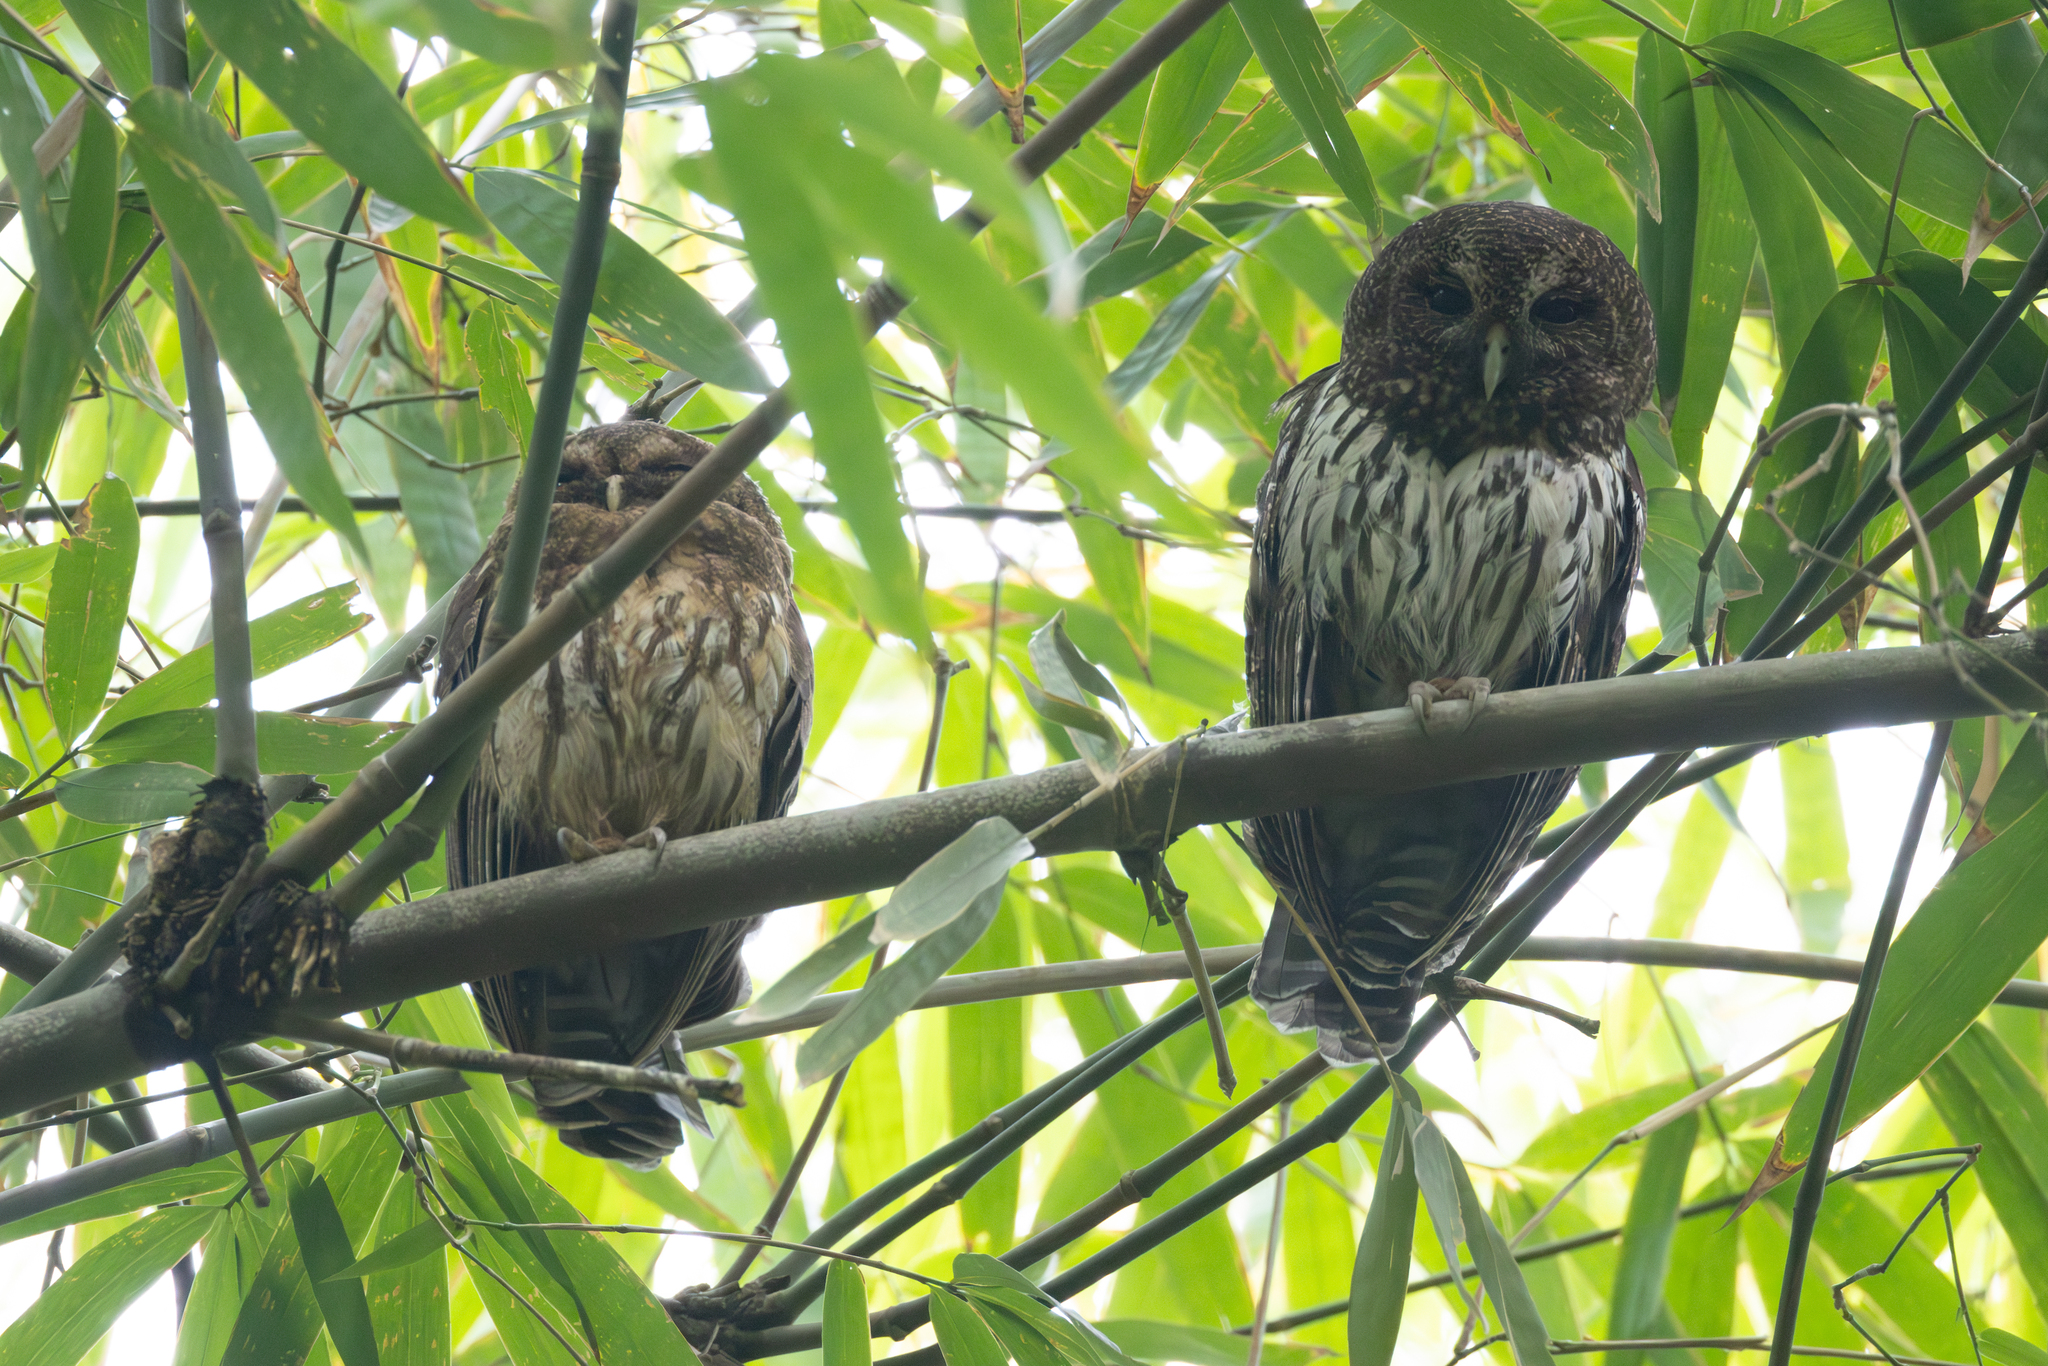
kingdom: Animalia
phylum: Chordata
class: Aves
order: Strigiformes
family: Strigidae
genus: Strix
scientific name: Strix virgata
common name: Mottled owl
